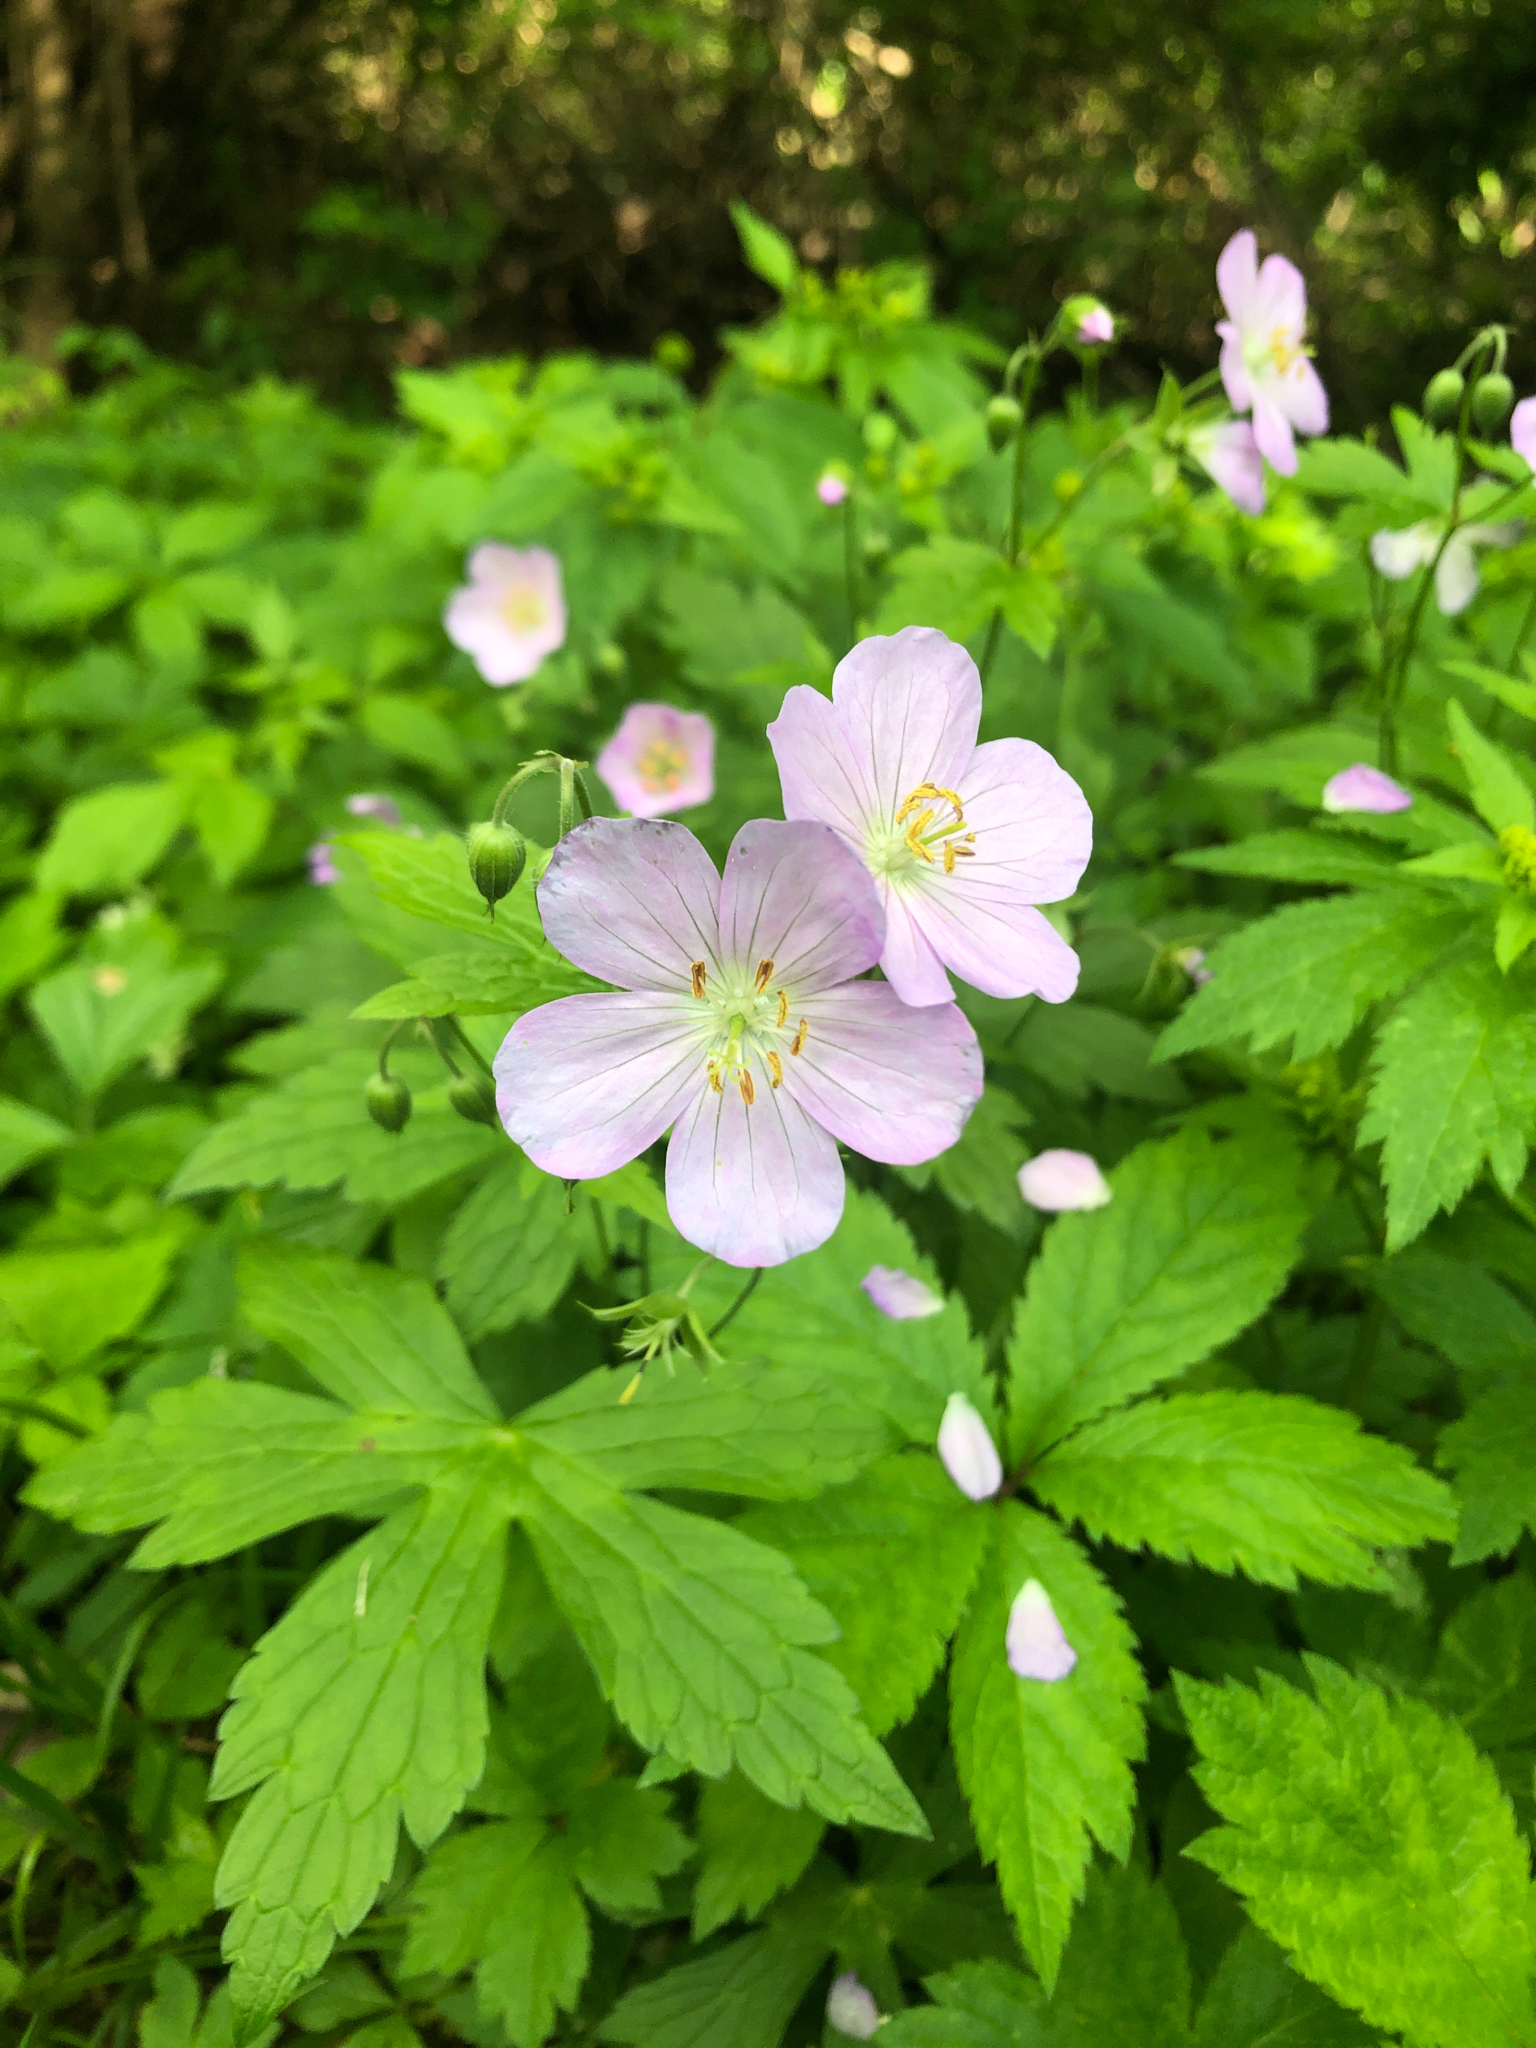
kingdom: Plantae
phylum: Tracheophyta
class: Magnoliopsida
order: Geraniales
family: Geraniaceae
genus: Geranium
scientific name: Geranium maculatum
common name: Spotted geranium
